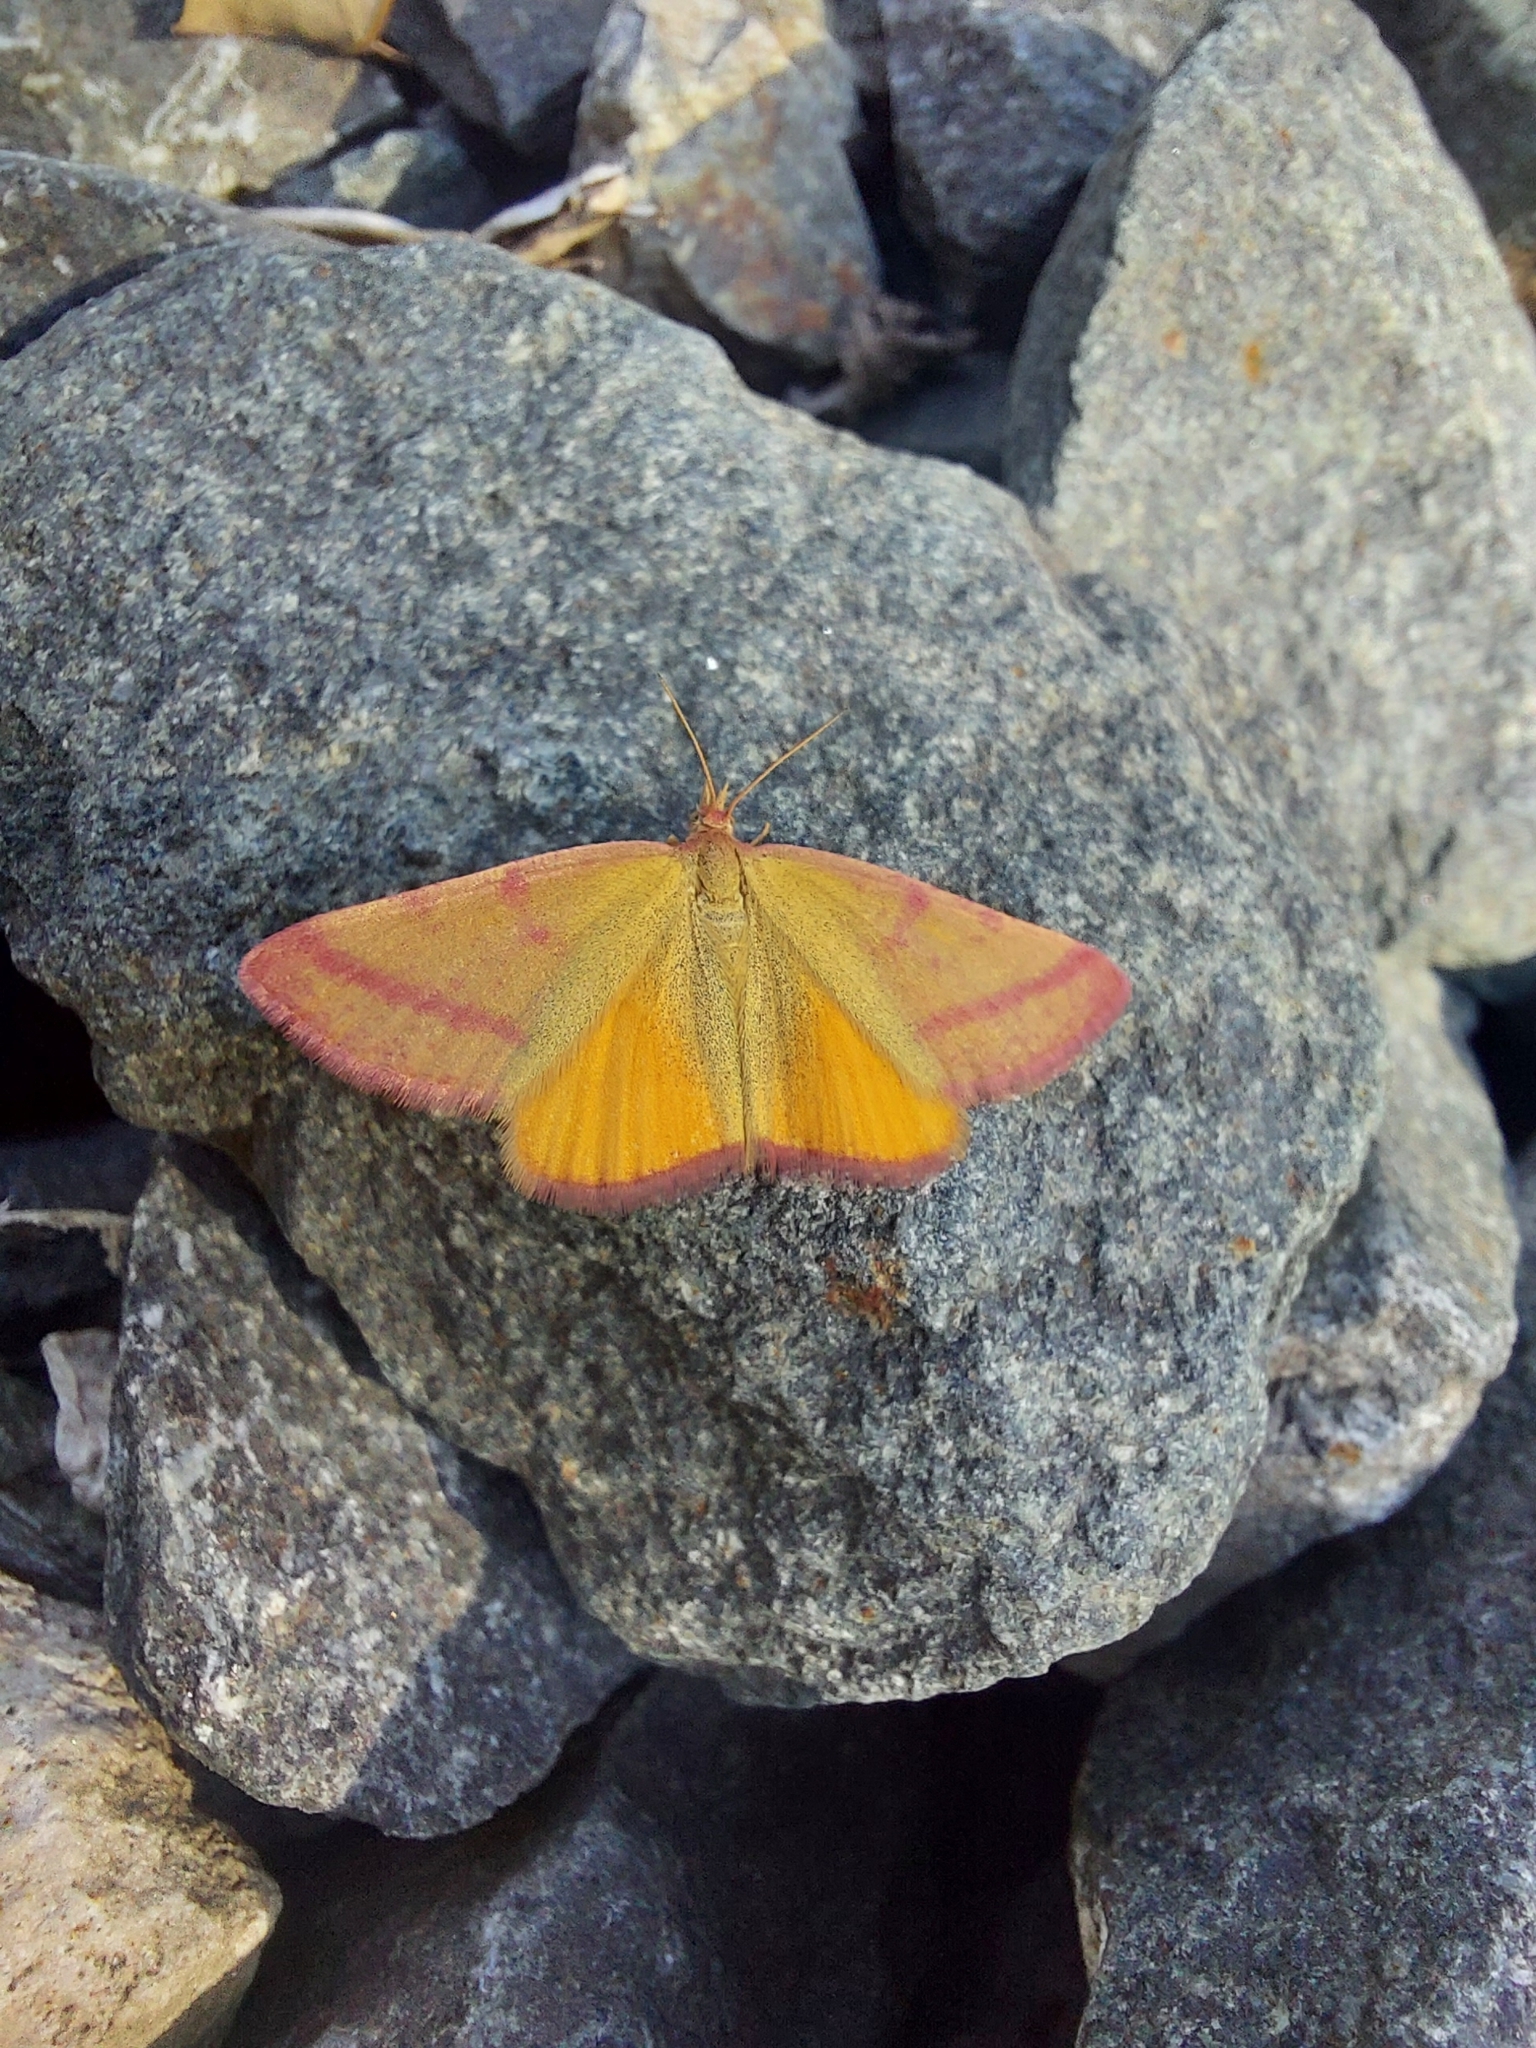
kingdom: Animalia
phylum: Arthropoda
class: Insecta
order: Lepidoptera
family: Geometridae
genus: Lythria
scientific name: Lythria purpuraria
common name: Purple-barred yellow
